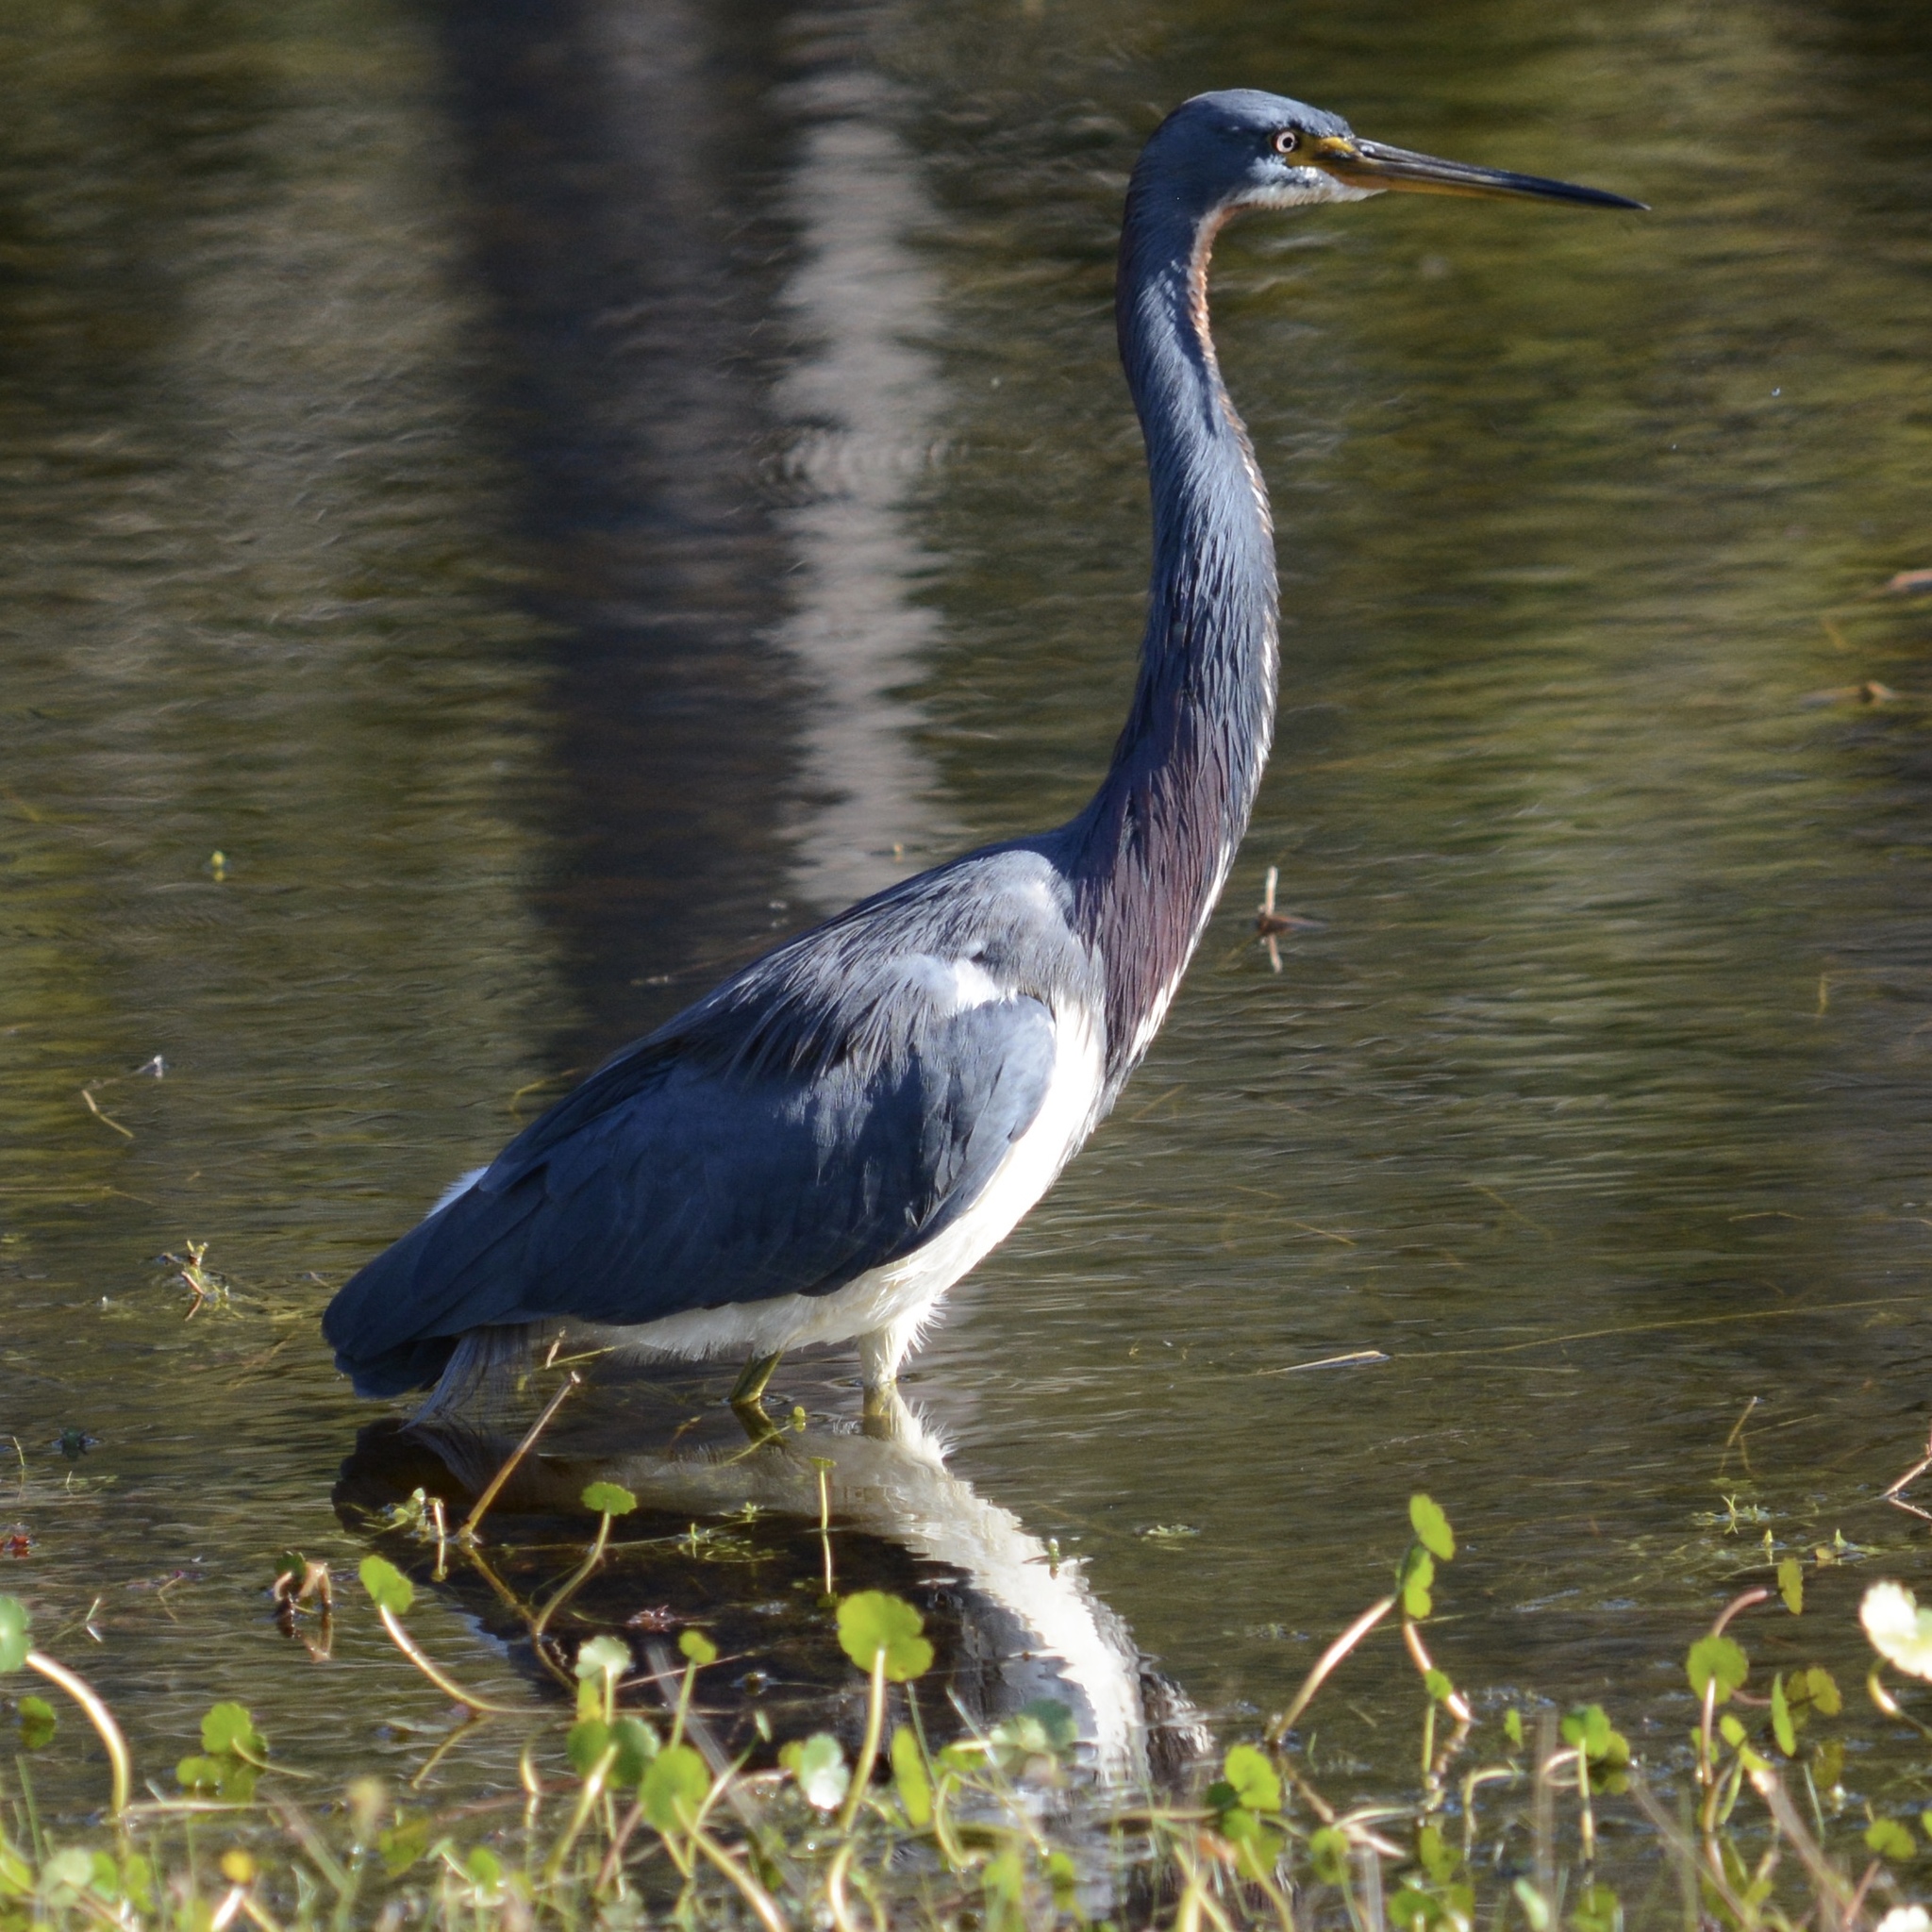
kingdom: Animalia
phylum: Chordata
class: Aves
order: Pelecaniformes
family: Ardeidae
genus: Egretta
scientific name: Egretta tricolor
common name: Tricolored heron
